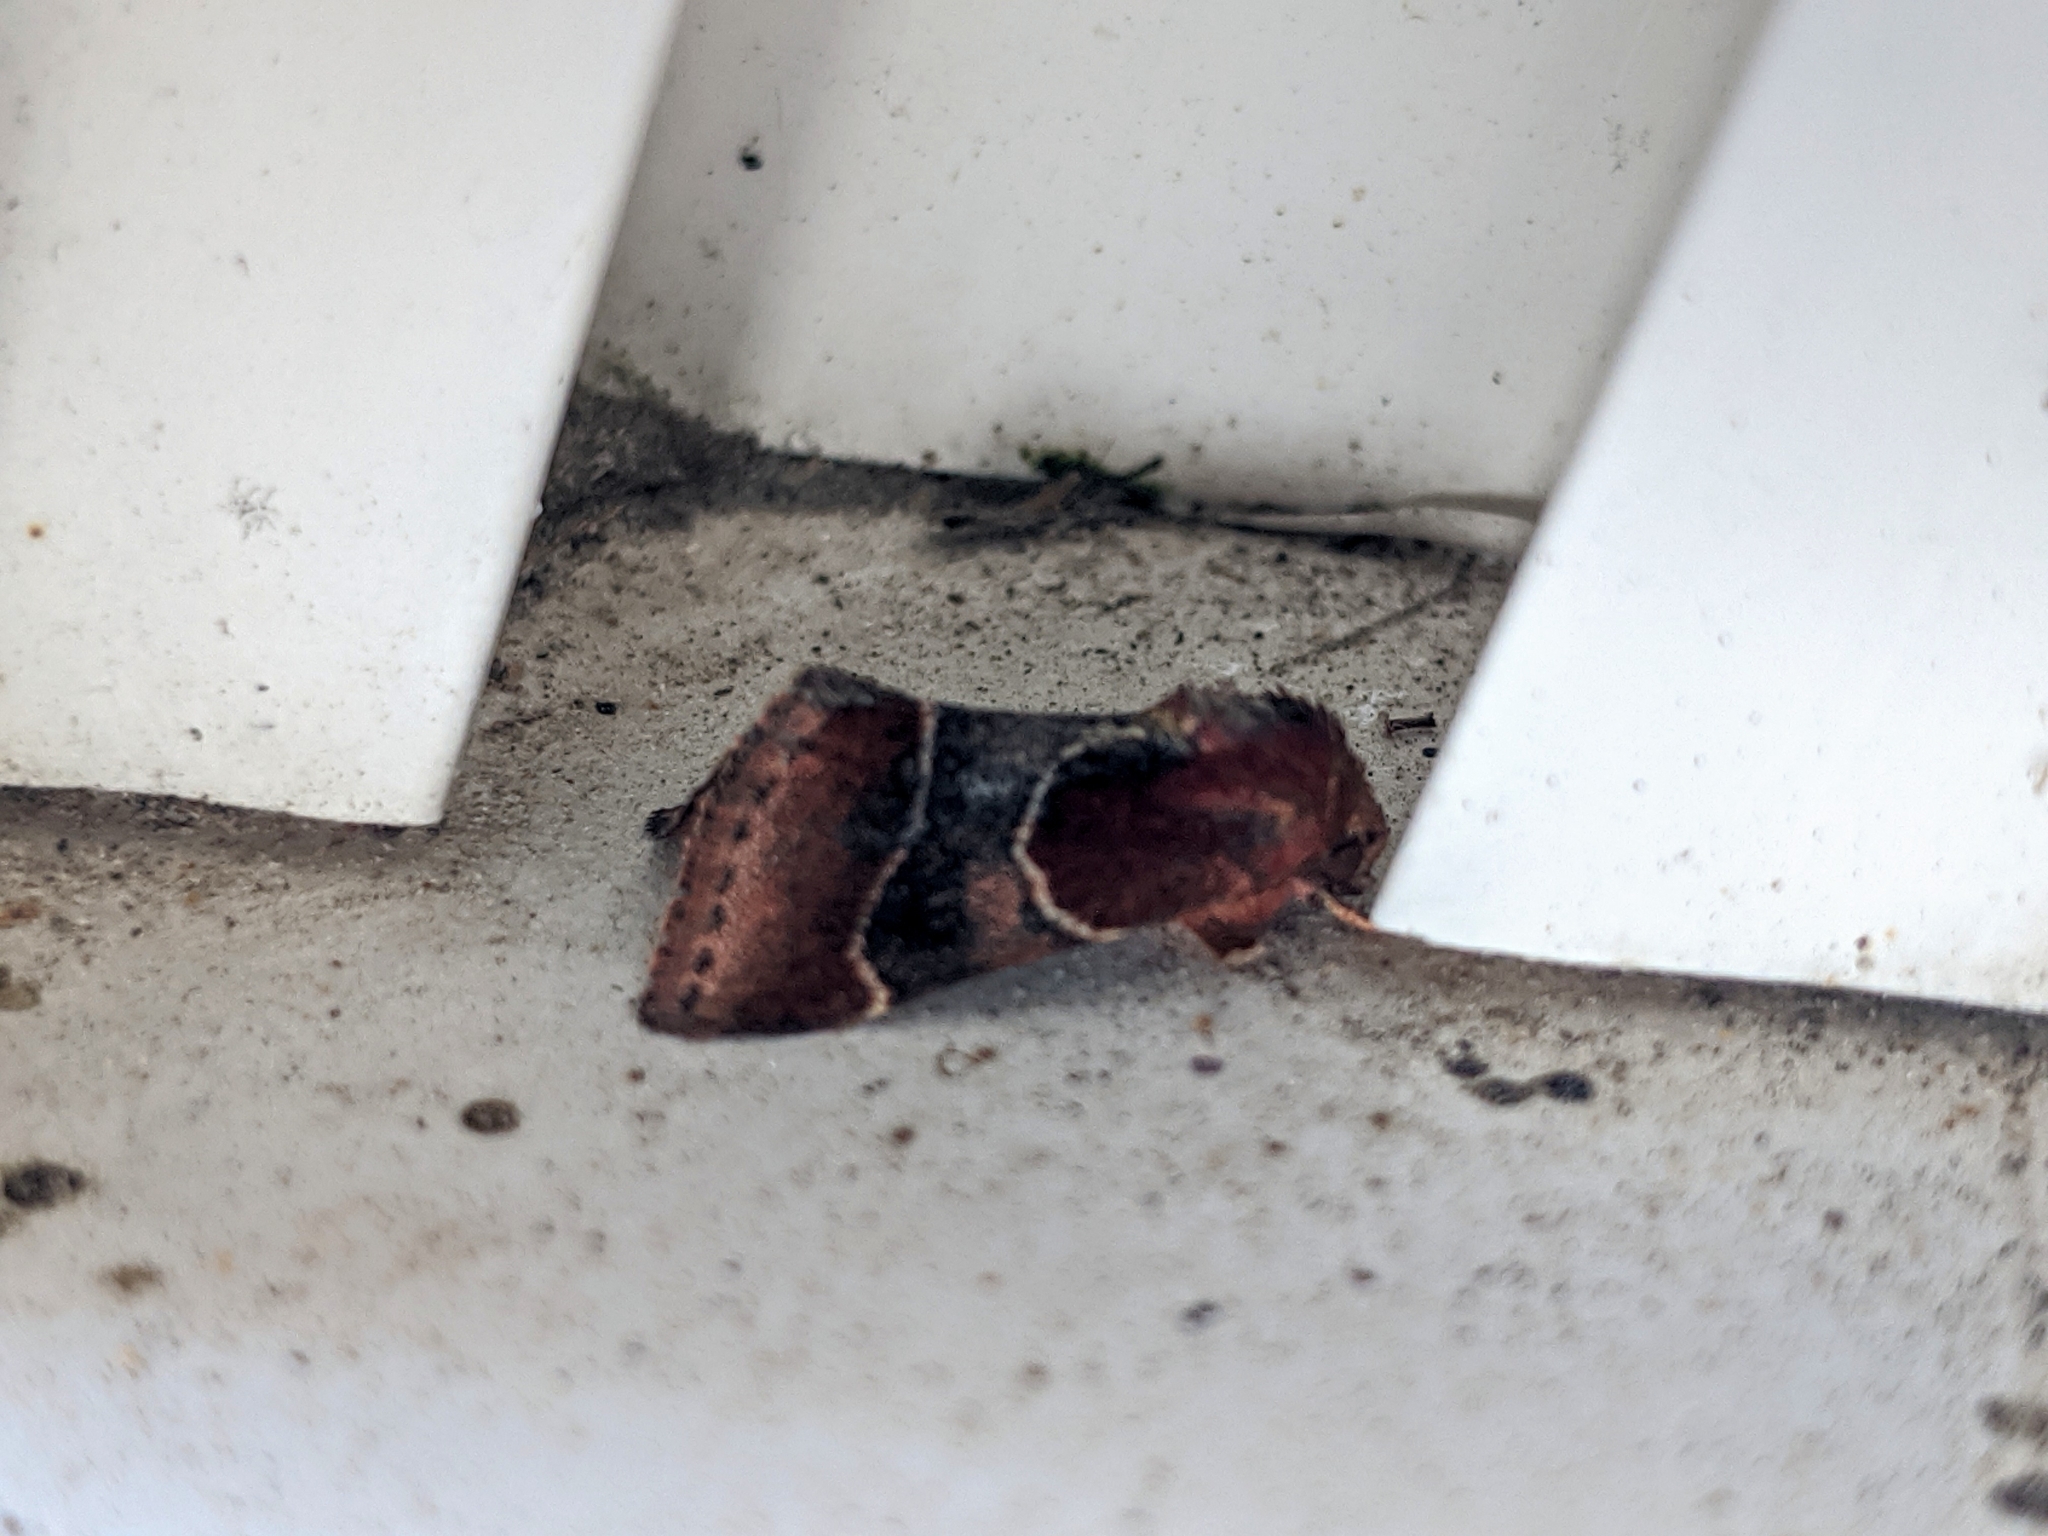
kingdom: Animalia
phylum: Arthropoda
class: Insecta
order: Lepidoptera
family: Noctuidae
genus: Schinia
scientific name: Schinia arcigera
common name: Arcigera flower moth
